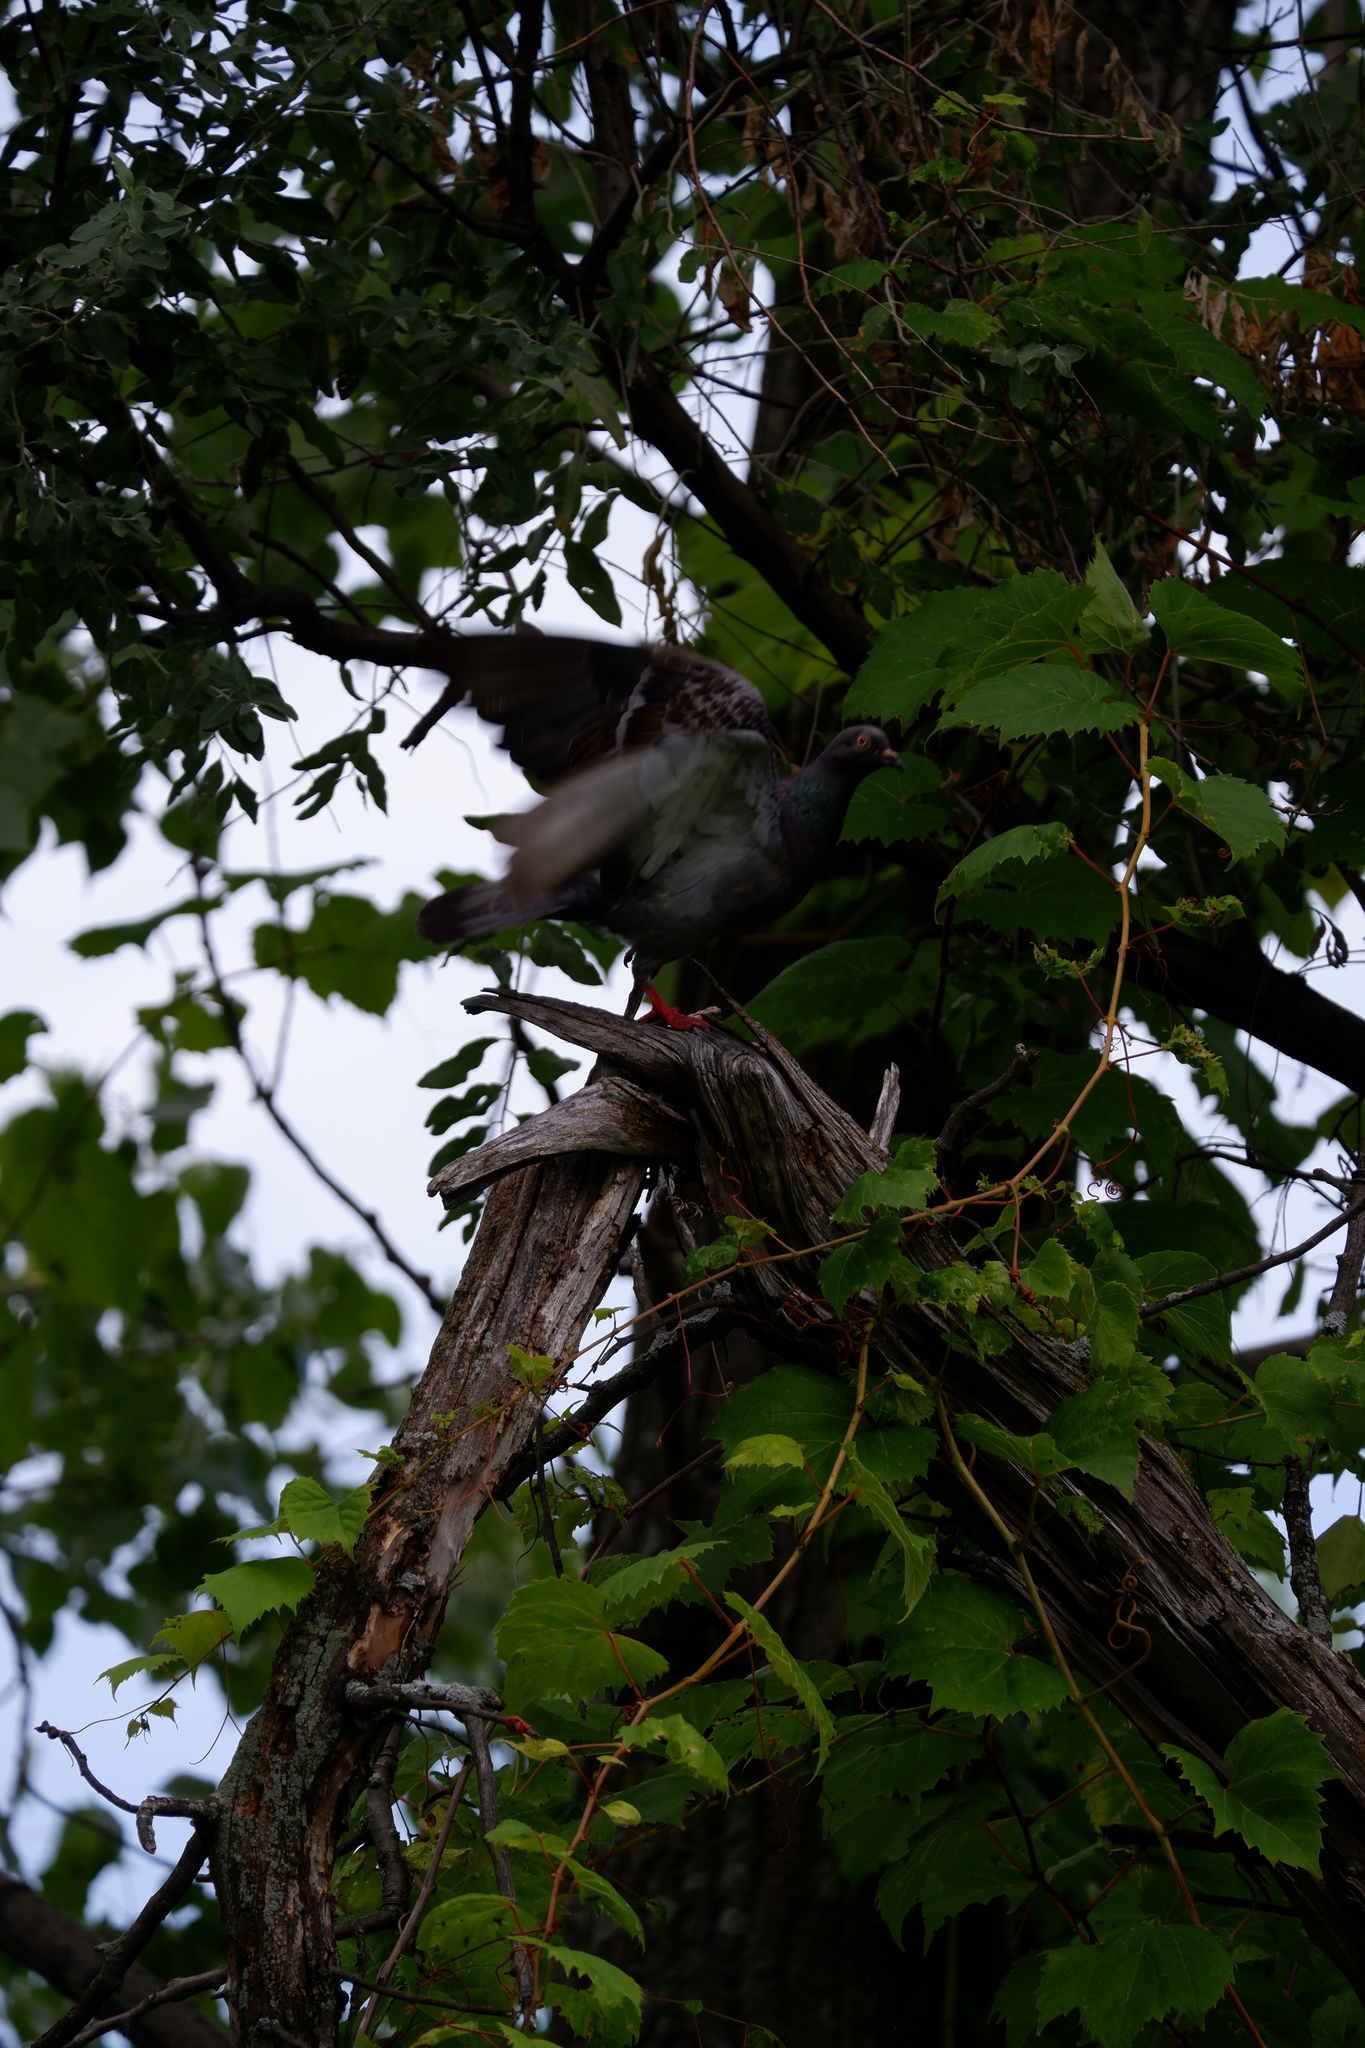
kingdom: Animalia
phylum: Chordata
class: Aves
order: Columbiformes
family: Columbidae
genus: Columba
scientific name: Columba livia
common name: Rock pigeon
